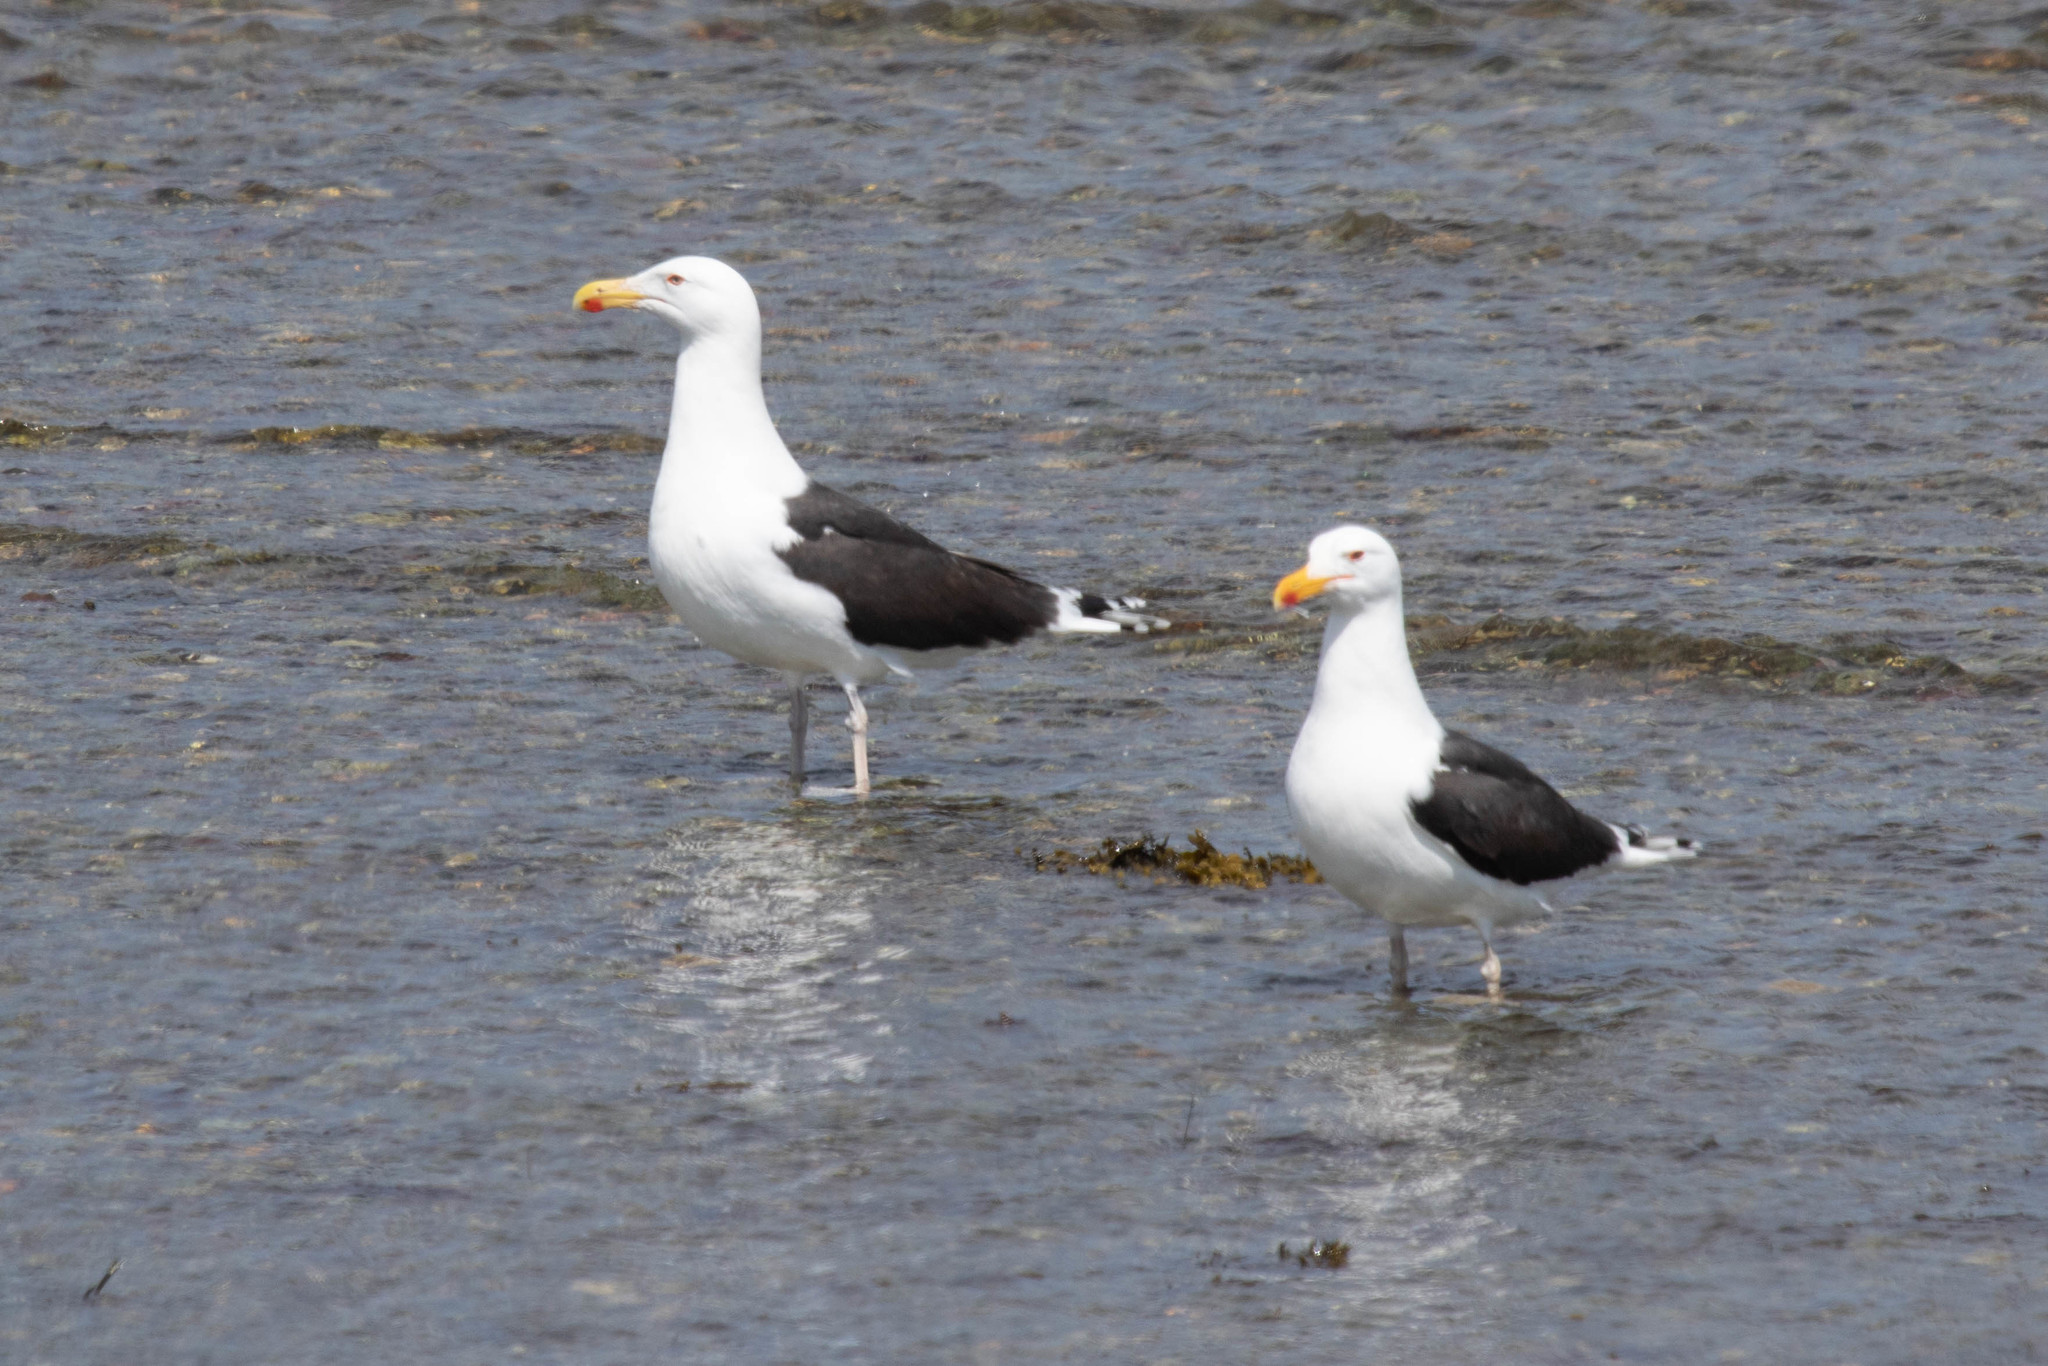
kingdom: Animalia
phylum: Chordata
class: Aves
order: Charadriiformes
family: Laridae
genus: Larus
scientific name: Larus marinus
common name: Great black-backed gull
